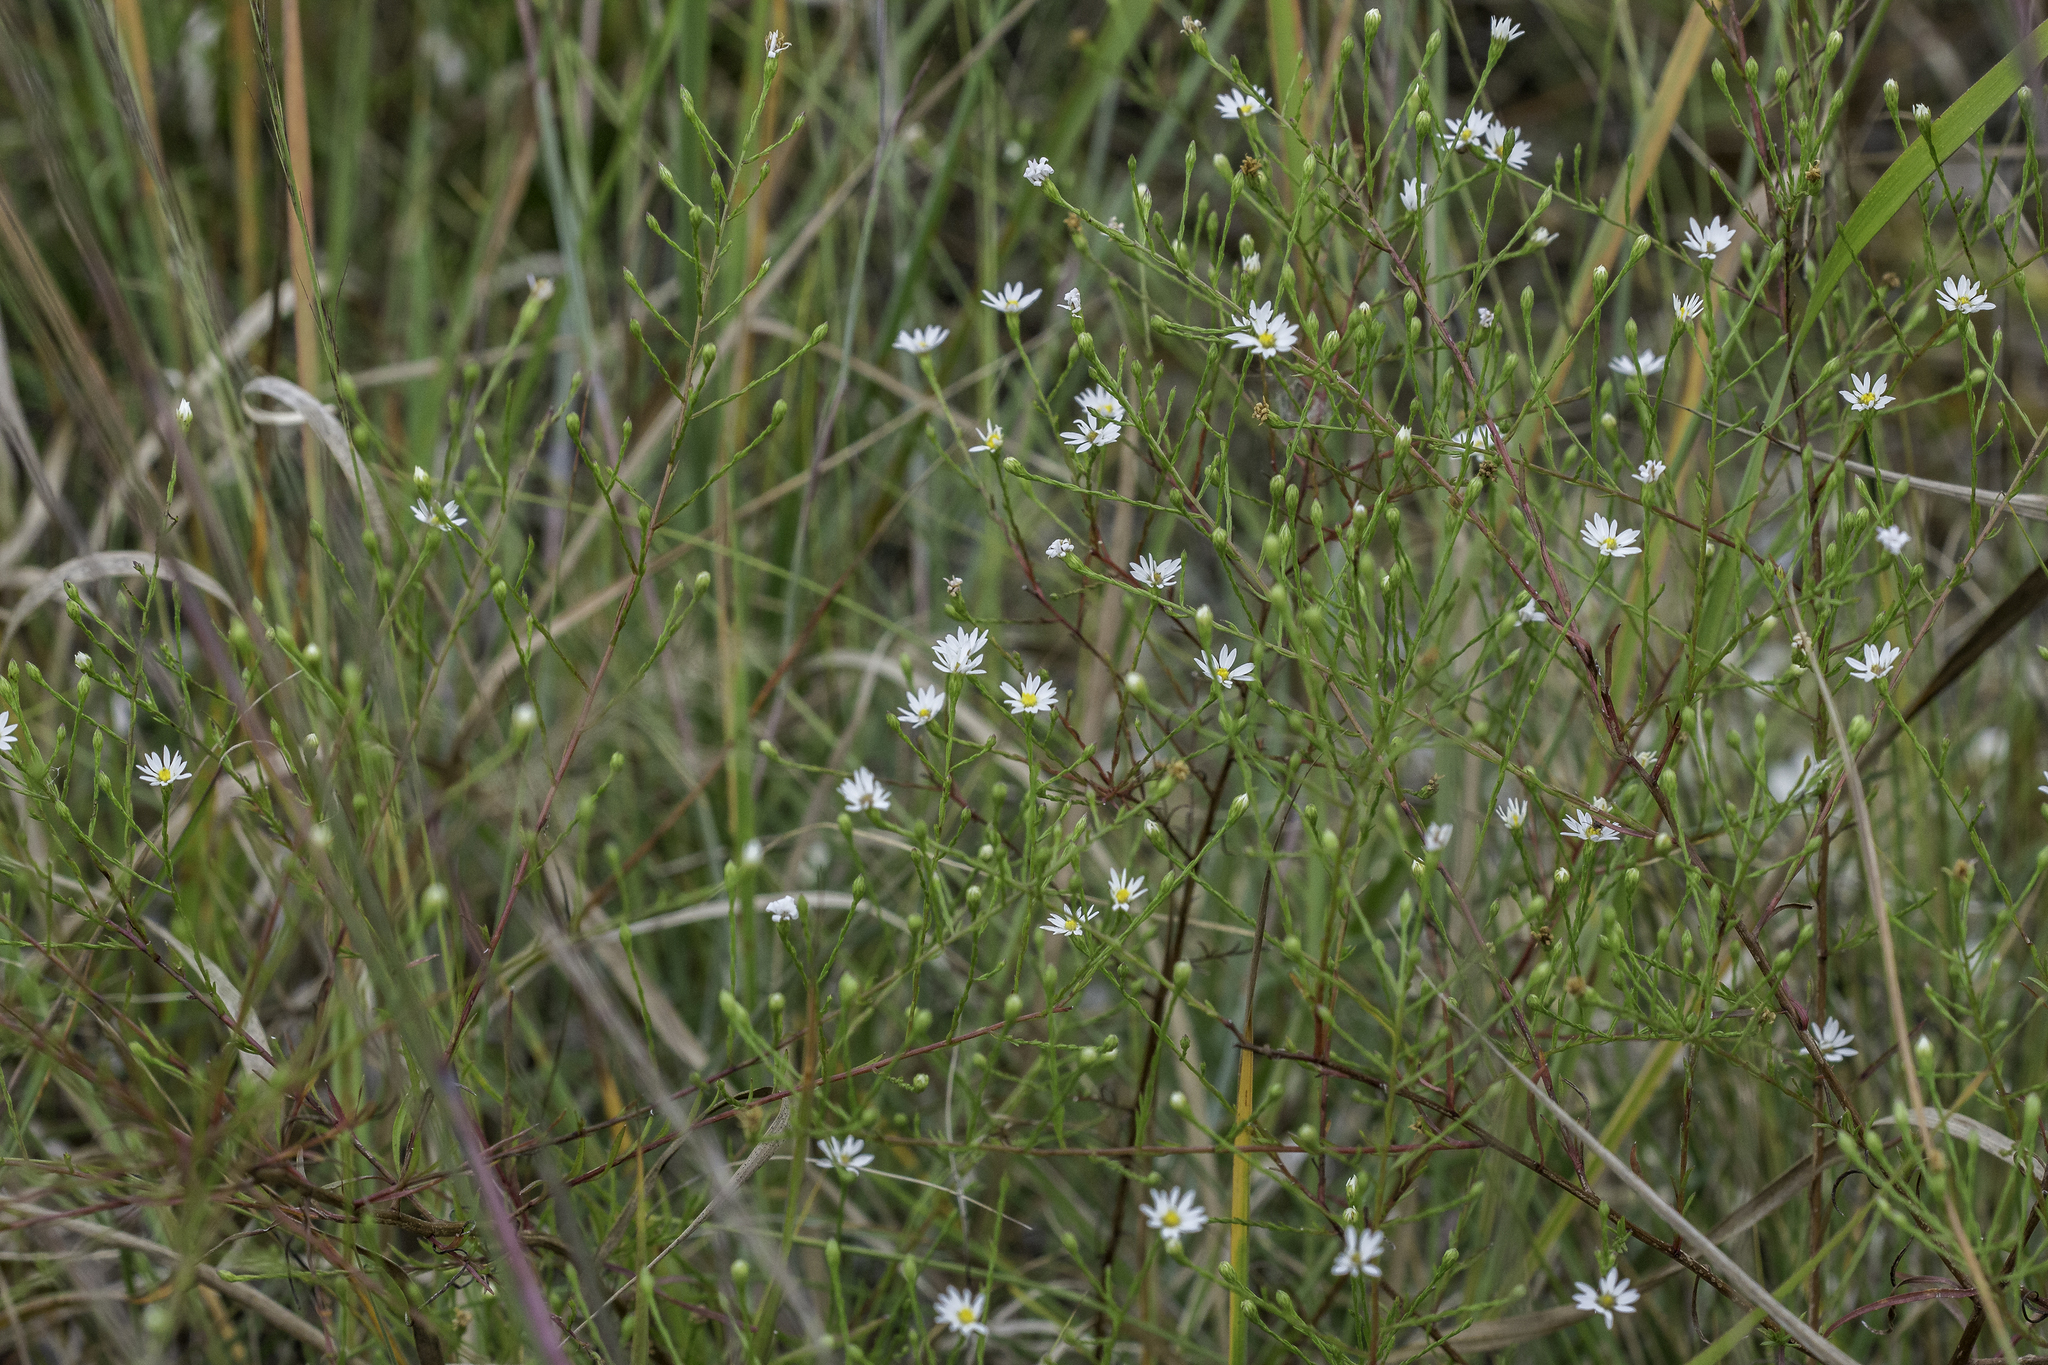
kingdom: Plantae
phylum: Tracheophyta
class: Magnoliopsida
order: Asterales
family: Asteraceae
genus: Symphyotrichum
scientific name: Symphyotrichum depauperatum
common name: Serpentine aster
